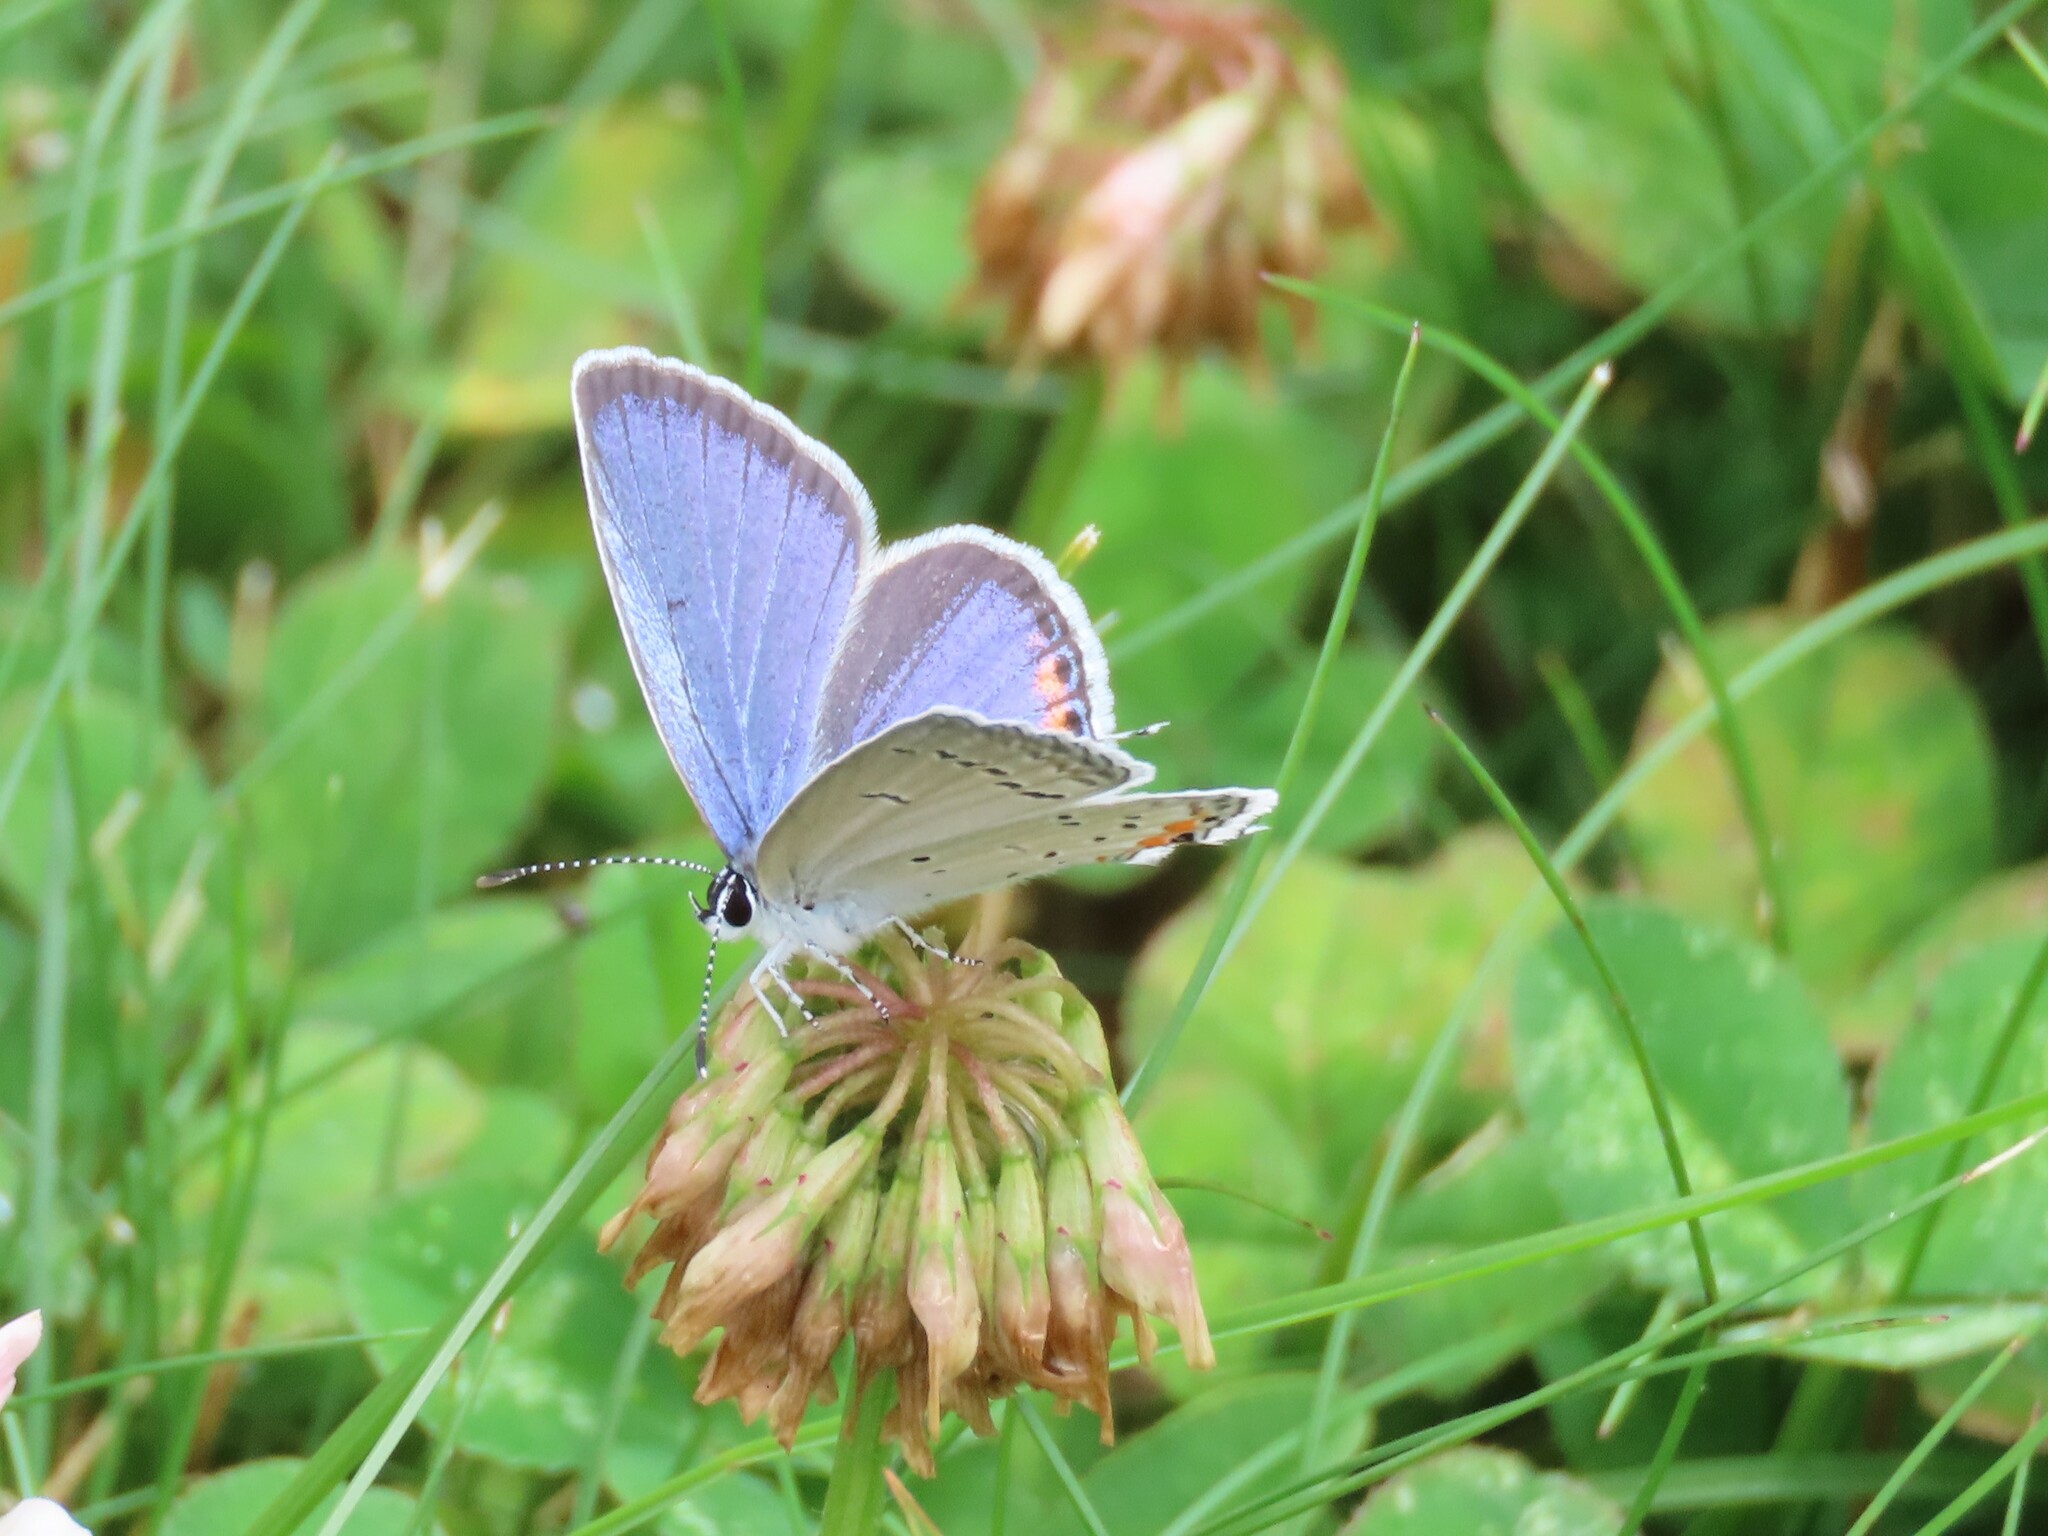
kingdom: Animalia
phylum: Arthropoda
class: Insecta
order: Lepidoptera
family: Lycaenidae
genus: Elkalyce
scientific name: Elkalyce comyntas
